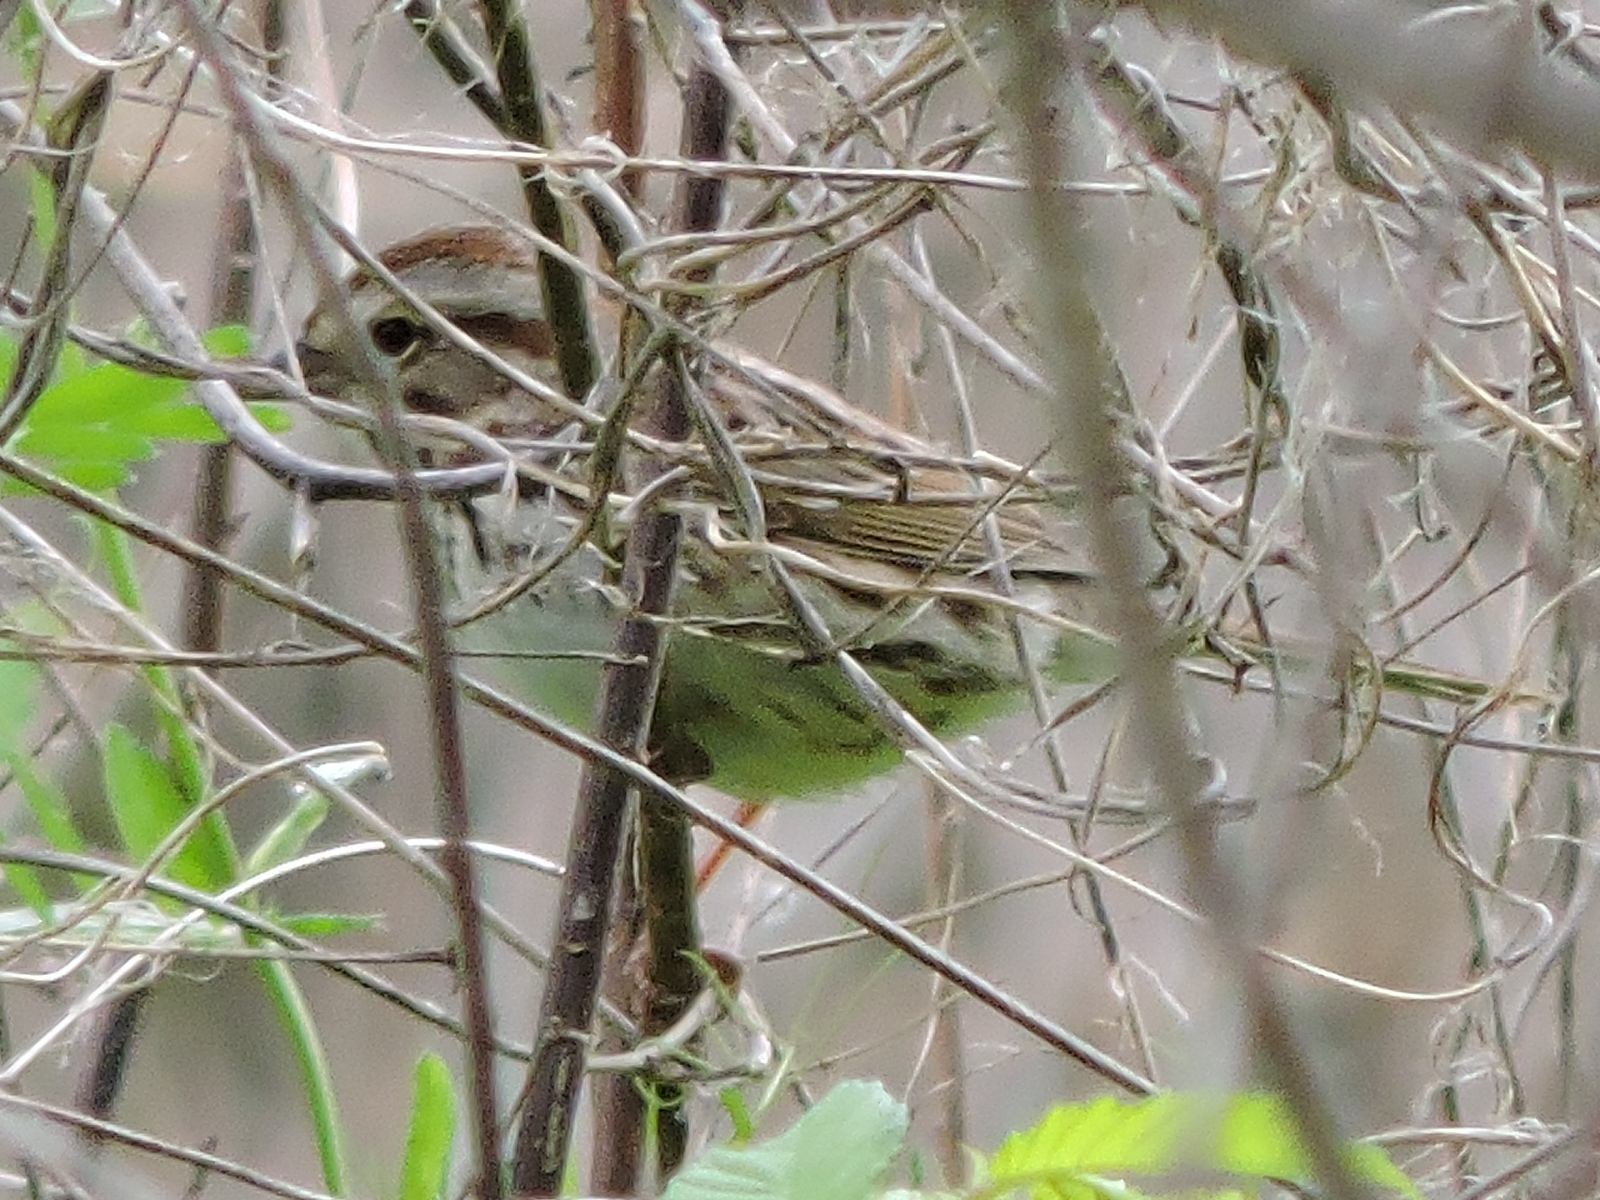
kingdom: Animalia
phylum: Chordata
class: Aves
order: Passeriformes
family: Passerellidae
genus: Melospiza
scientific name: Melospiza melodia
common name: Song sparrow
